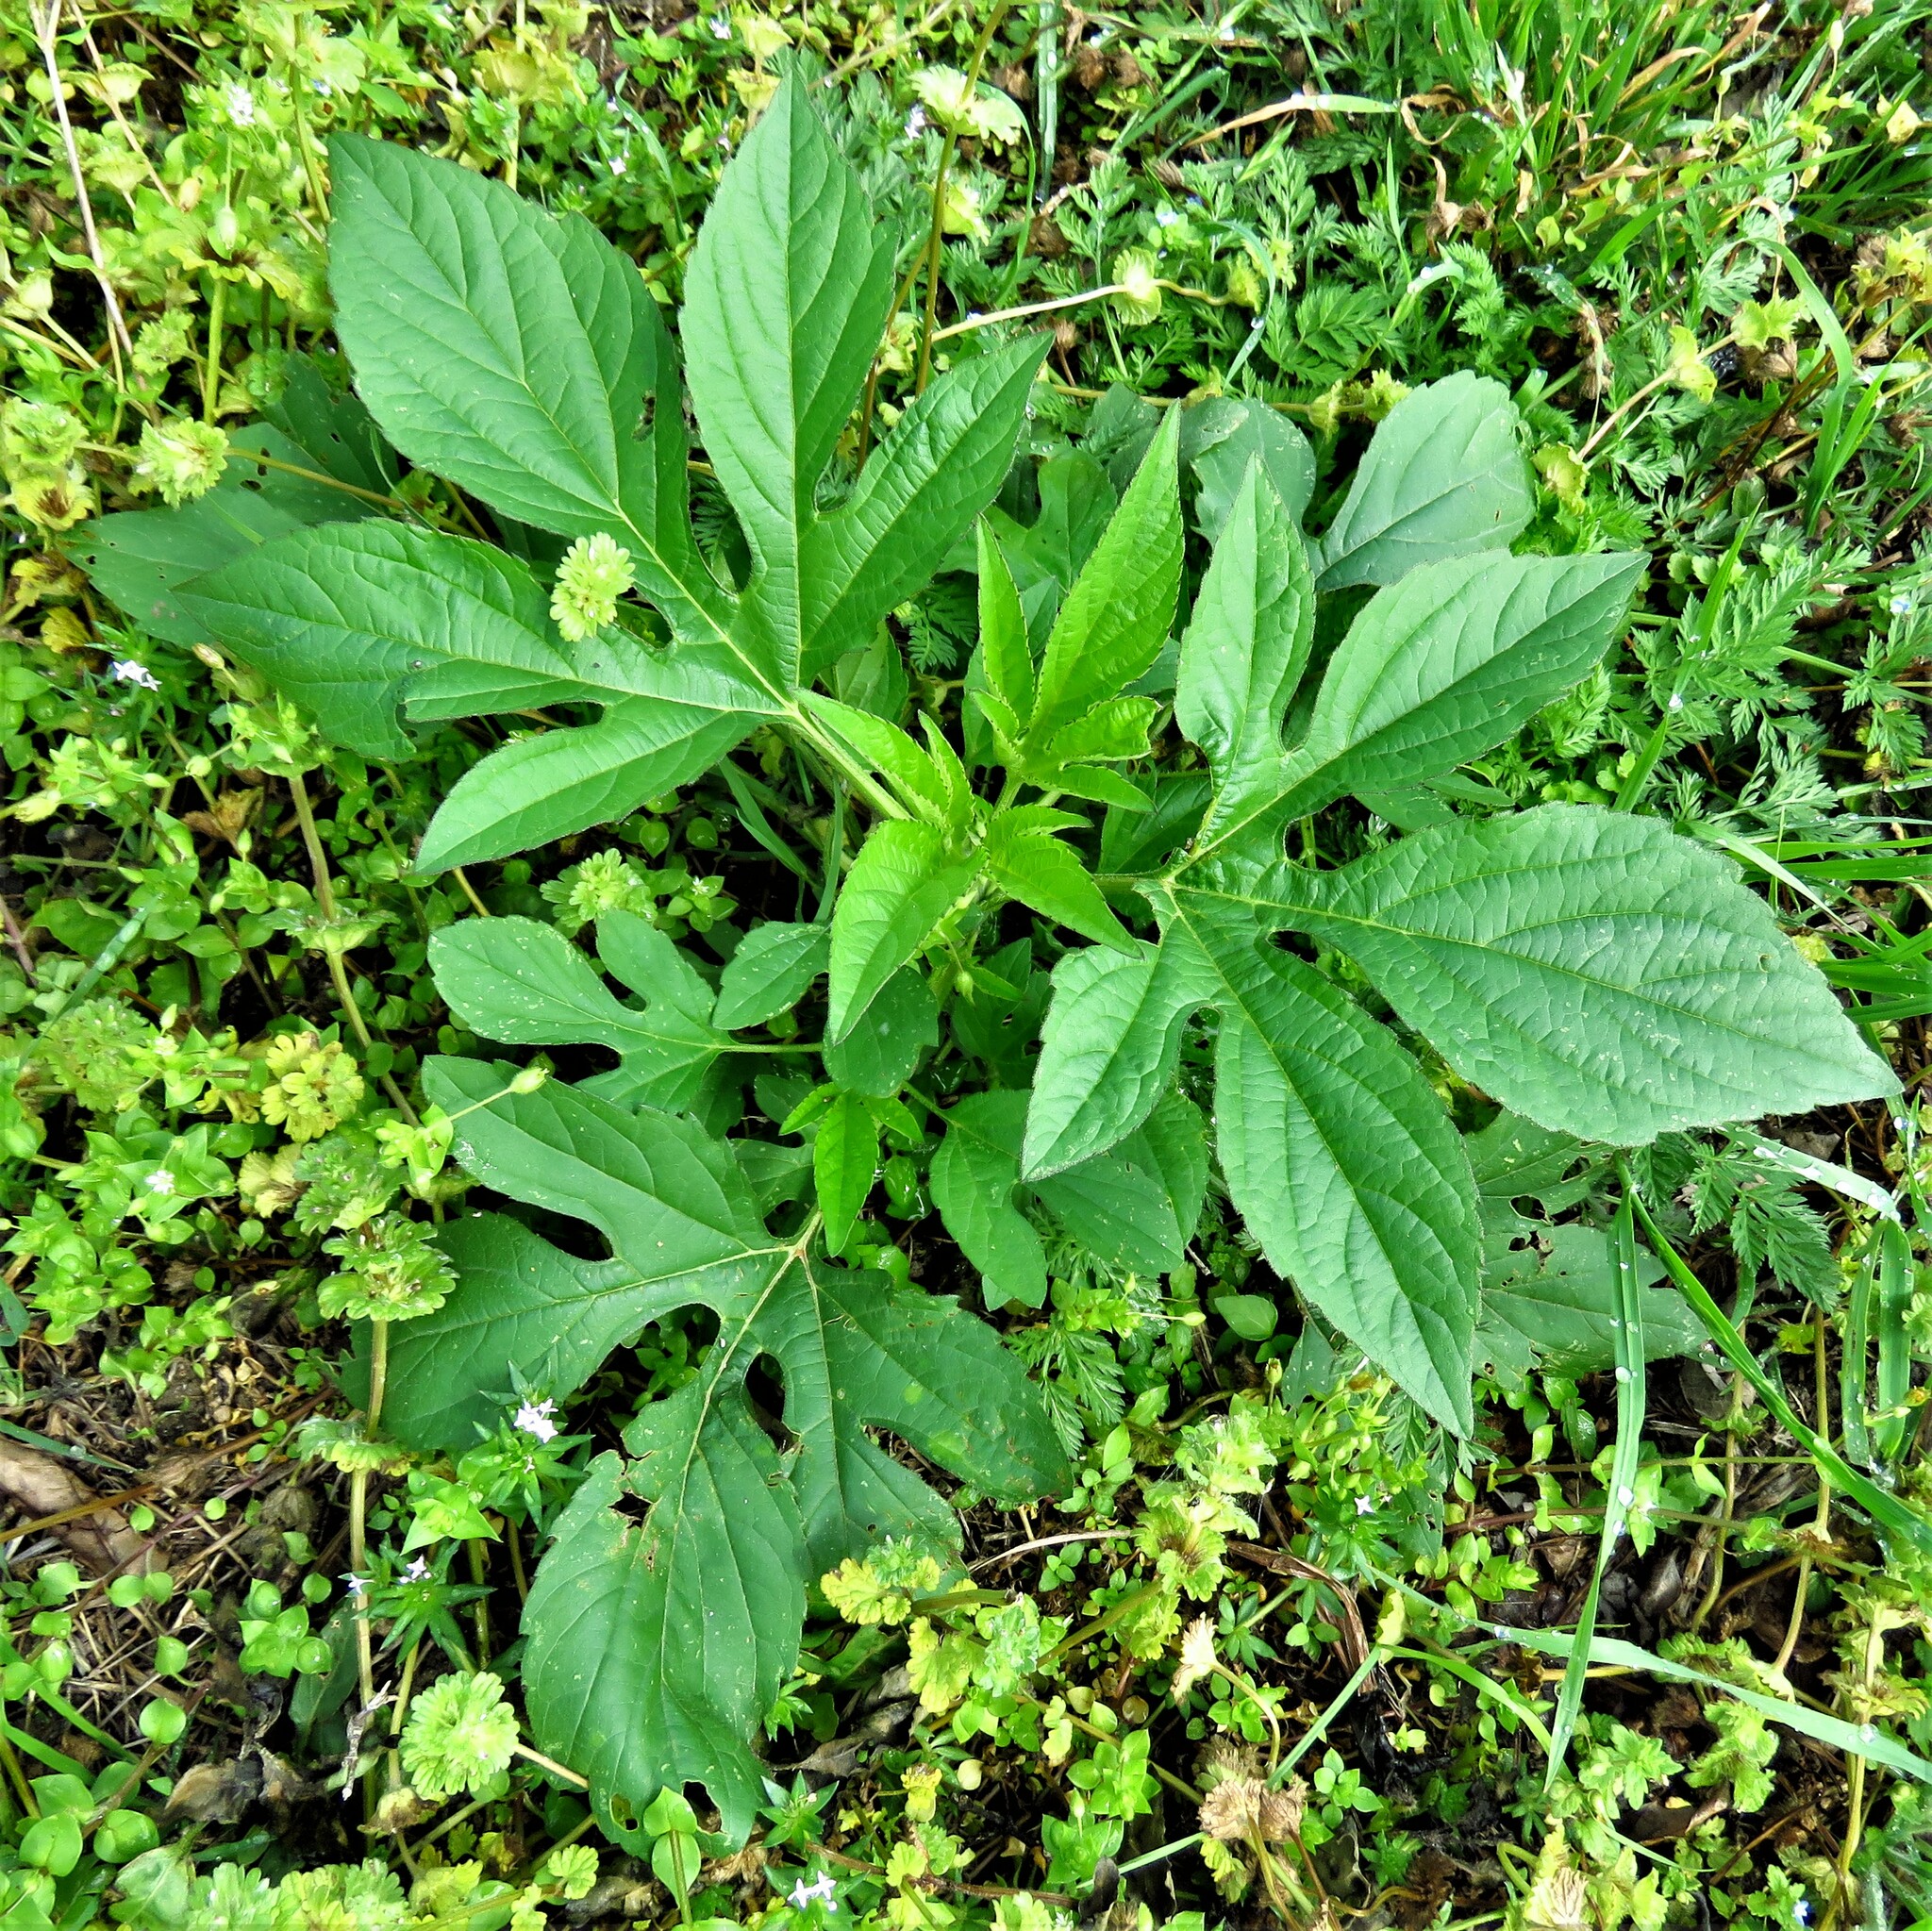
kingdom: Plantae
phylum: Tracheophyta
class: Magnoliopsida
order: Asterales
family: Asteraceae
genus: Ambrosia
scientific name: Ambrosia trifida
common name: Giant ragweed
